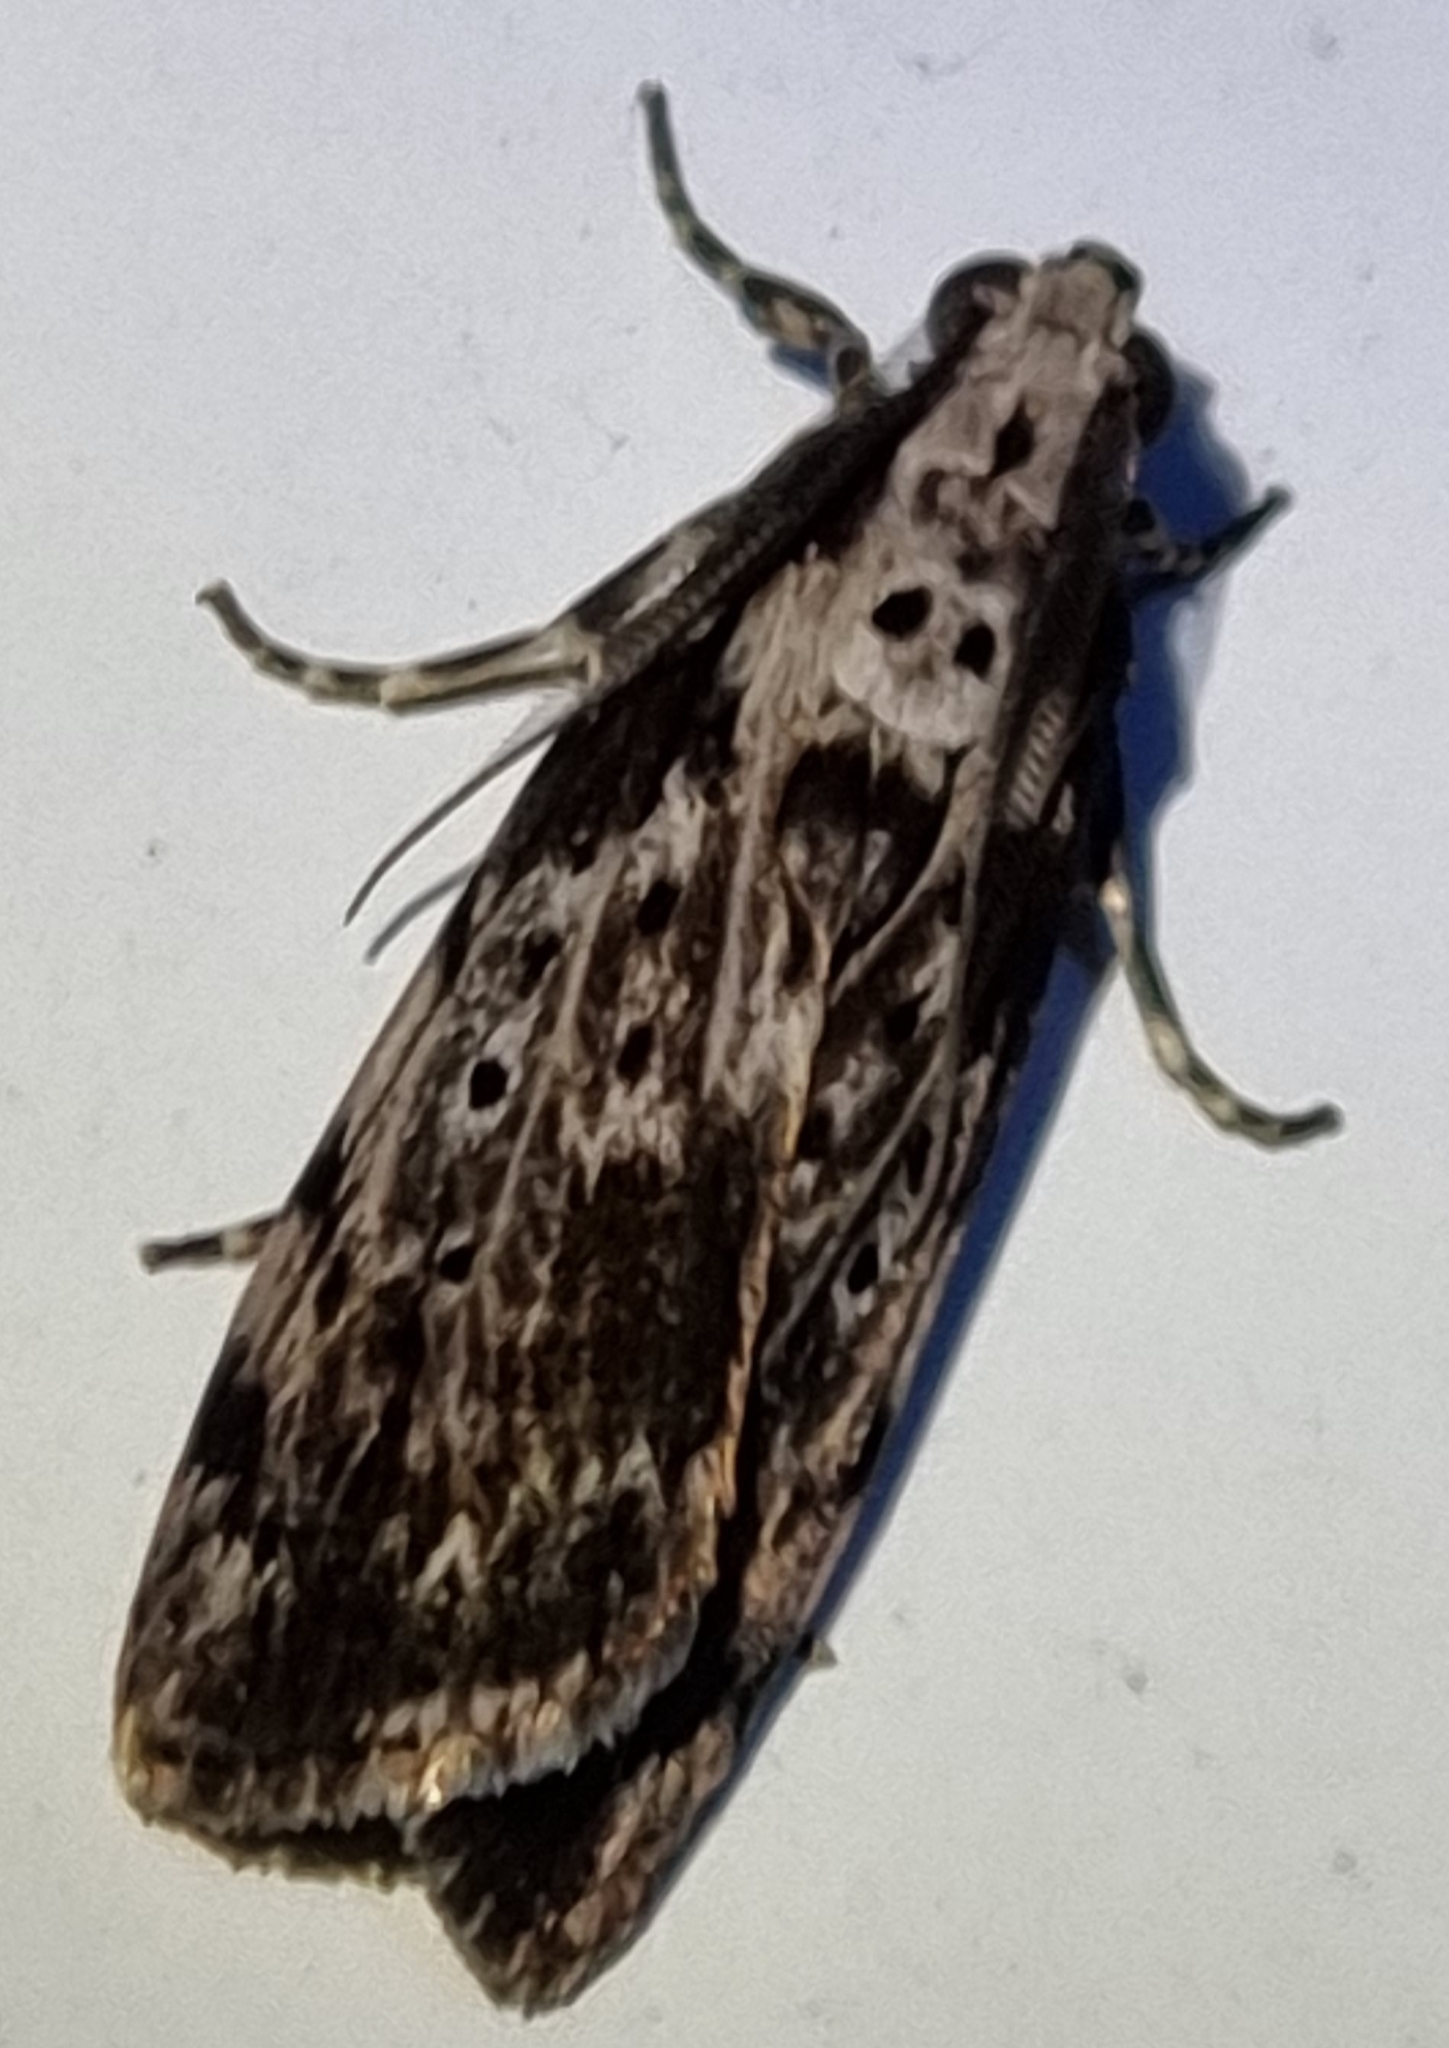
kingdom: Animalia
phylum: Arthropoda
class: Insecta
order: Lepidoptera
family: Erebidae
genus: Digama
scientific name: Digama Sommeria marmorea
